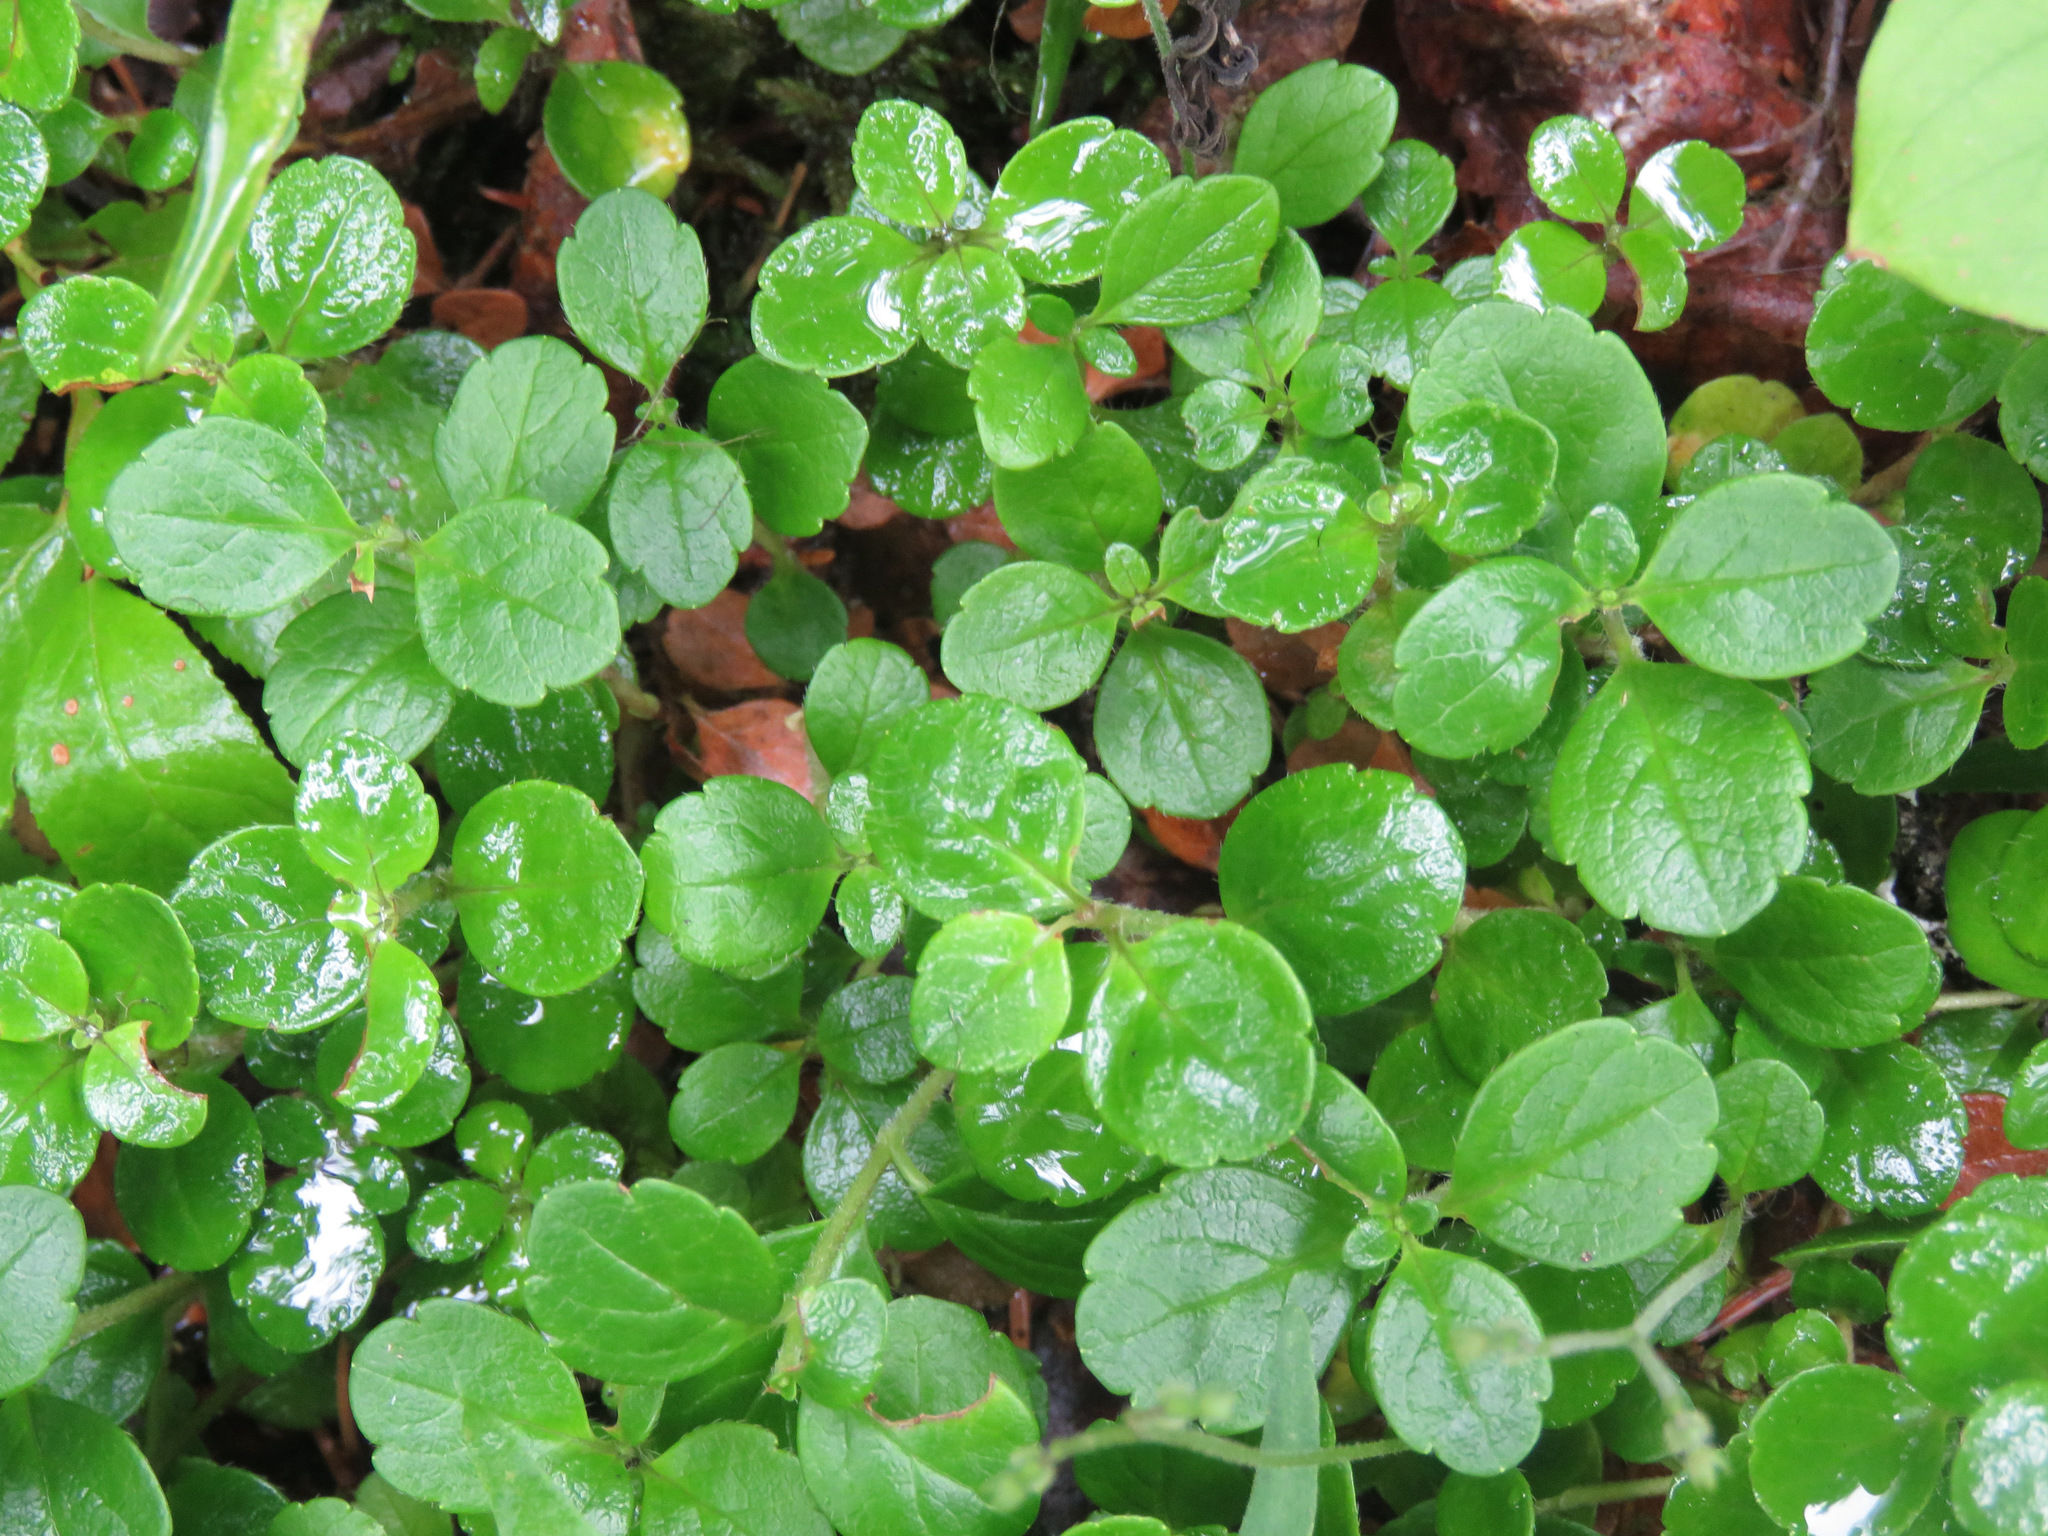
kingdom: Plantae
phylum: Tracheophyta
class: Magnoliopsida
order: Dipsacales
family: Caprifoliaceae
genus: Linnaea
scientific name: Linnaea borealis
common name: Twinflower
